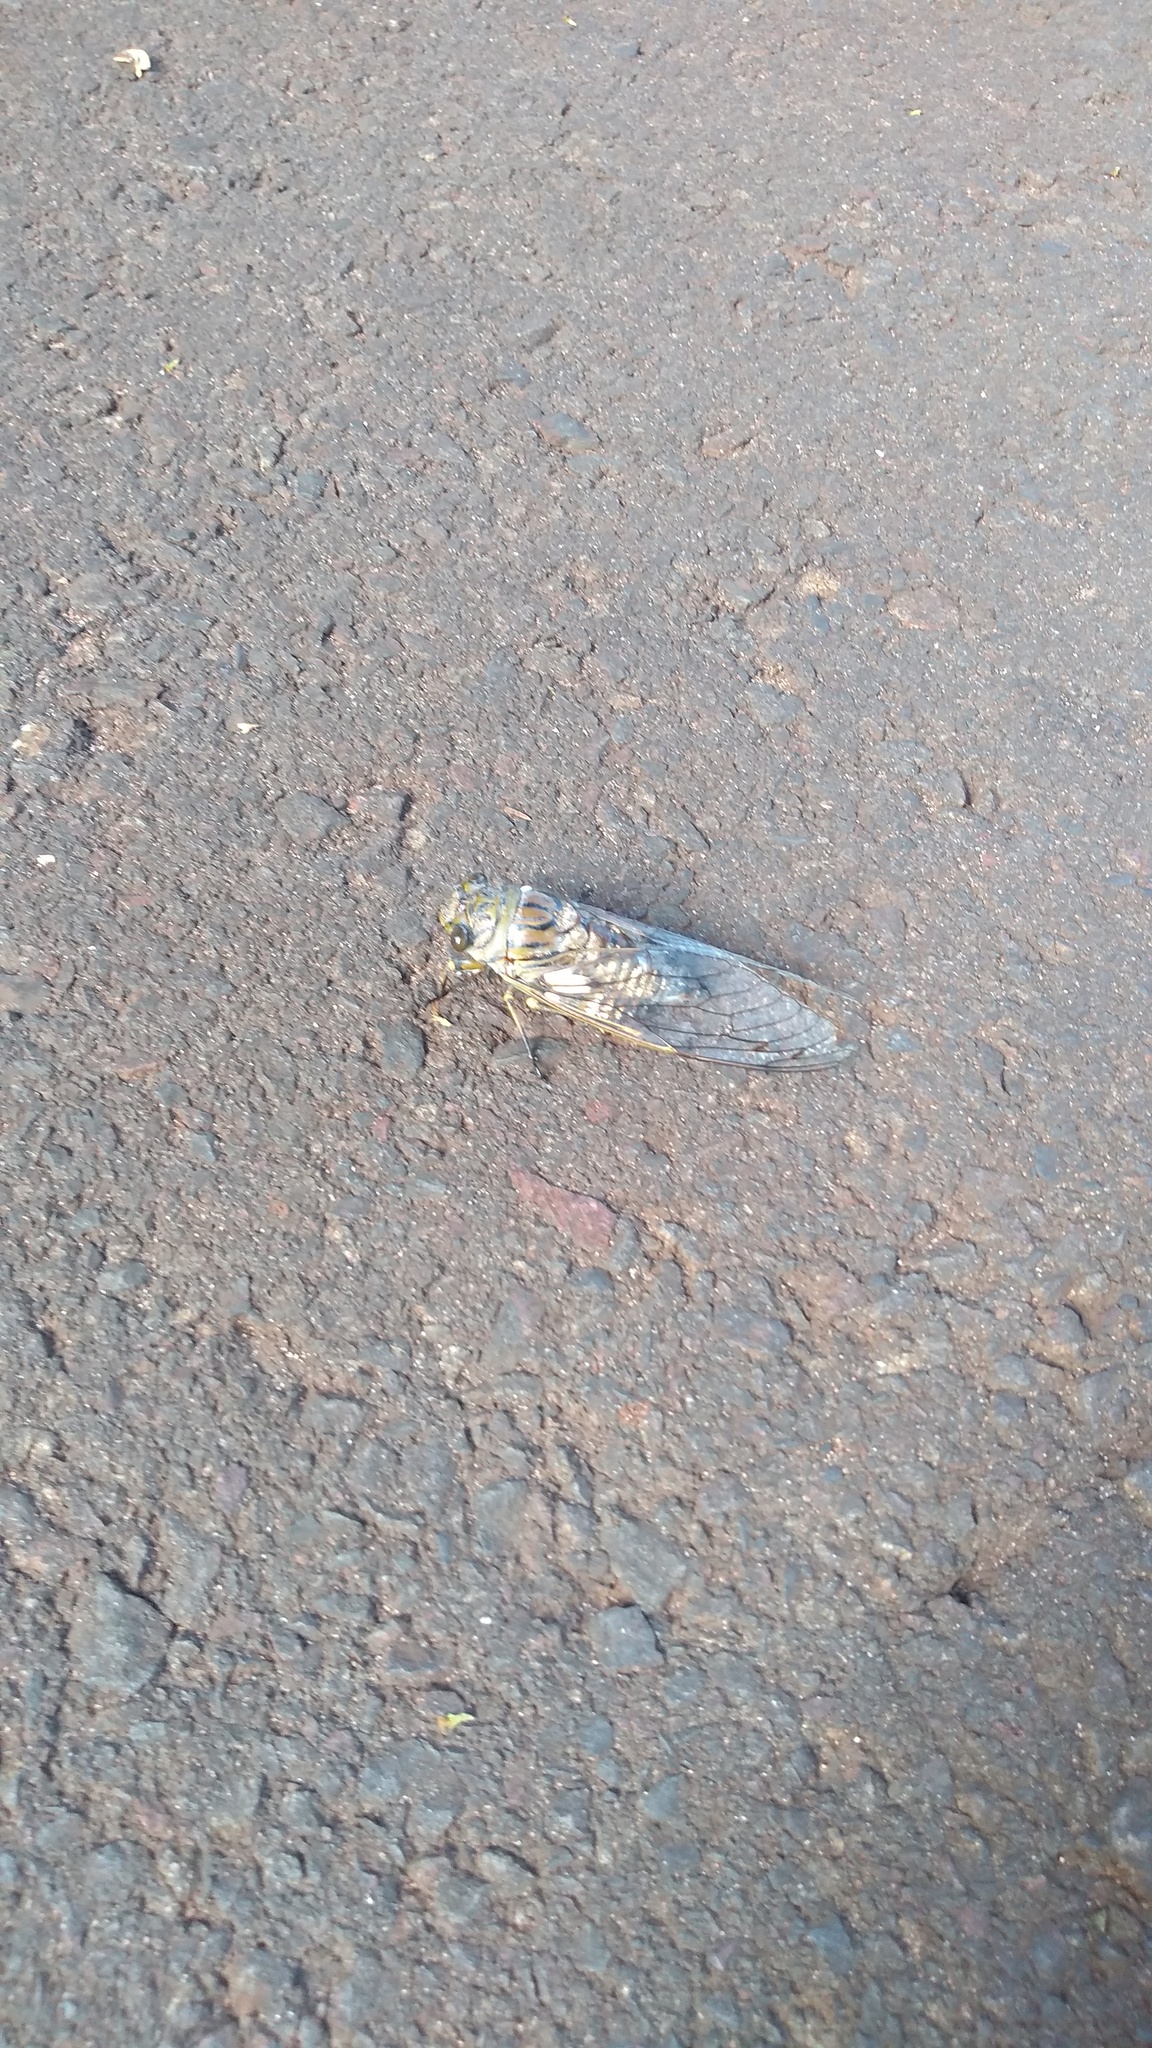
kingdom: Animalia
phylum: Arthropoda
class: Insecta
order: Hemiptera
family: Cicadidae
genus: Quesada
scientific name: Quesada gigas
